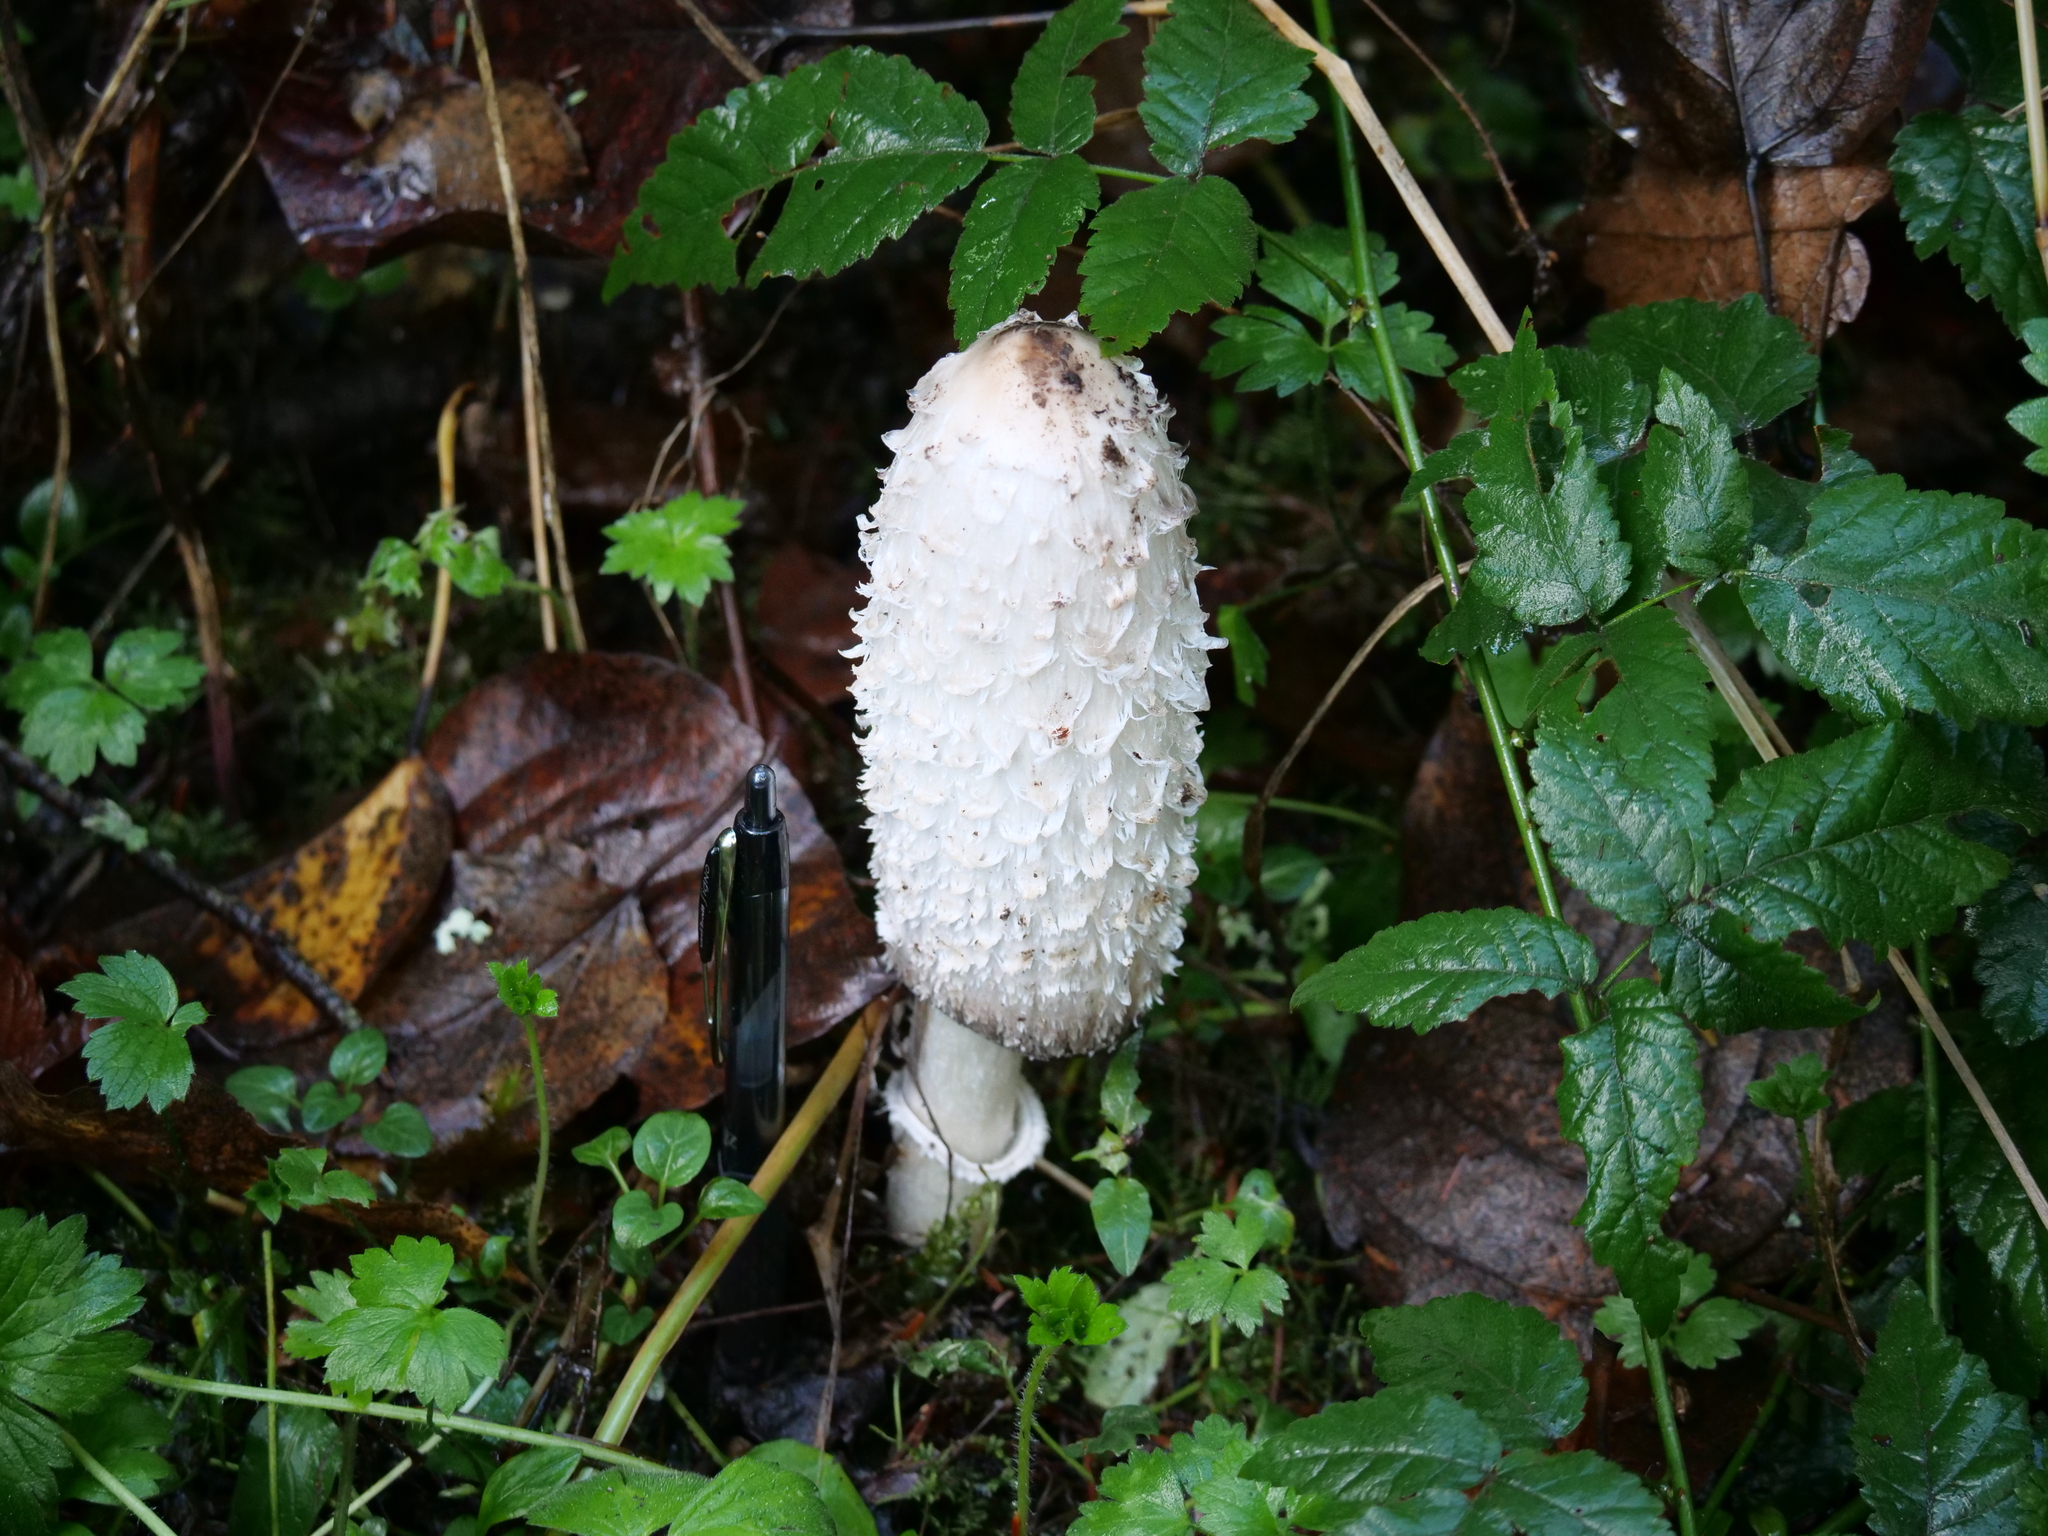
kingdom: Fungi
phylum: Basidiomycota
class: Agaricomycetes
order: Agaricales
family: Agaricaceae
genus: Coprinus
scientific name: Coprinus comatus
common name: Lawyer's wig
